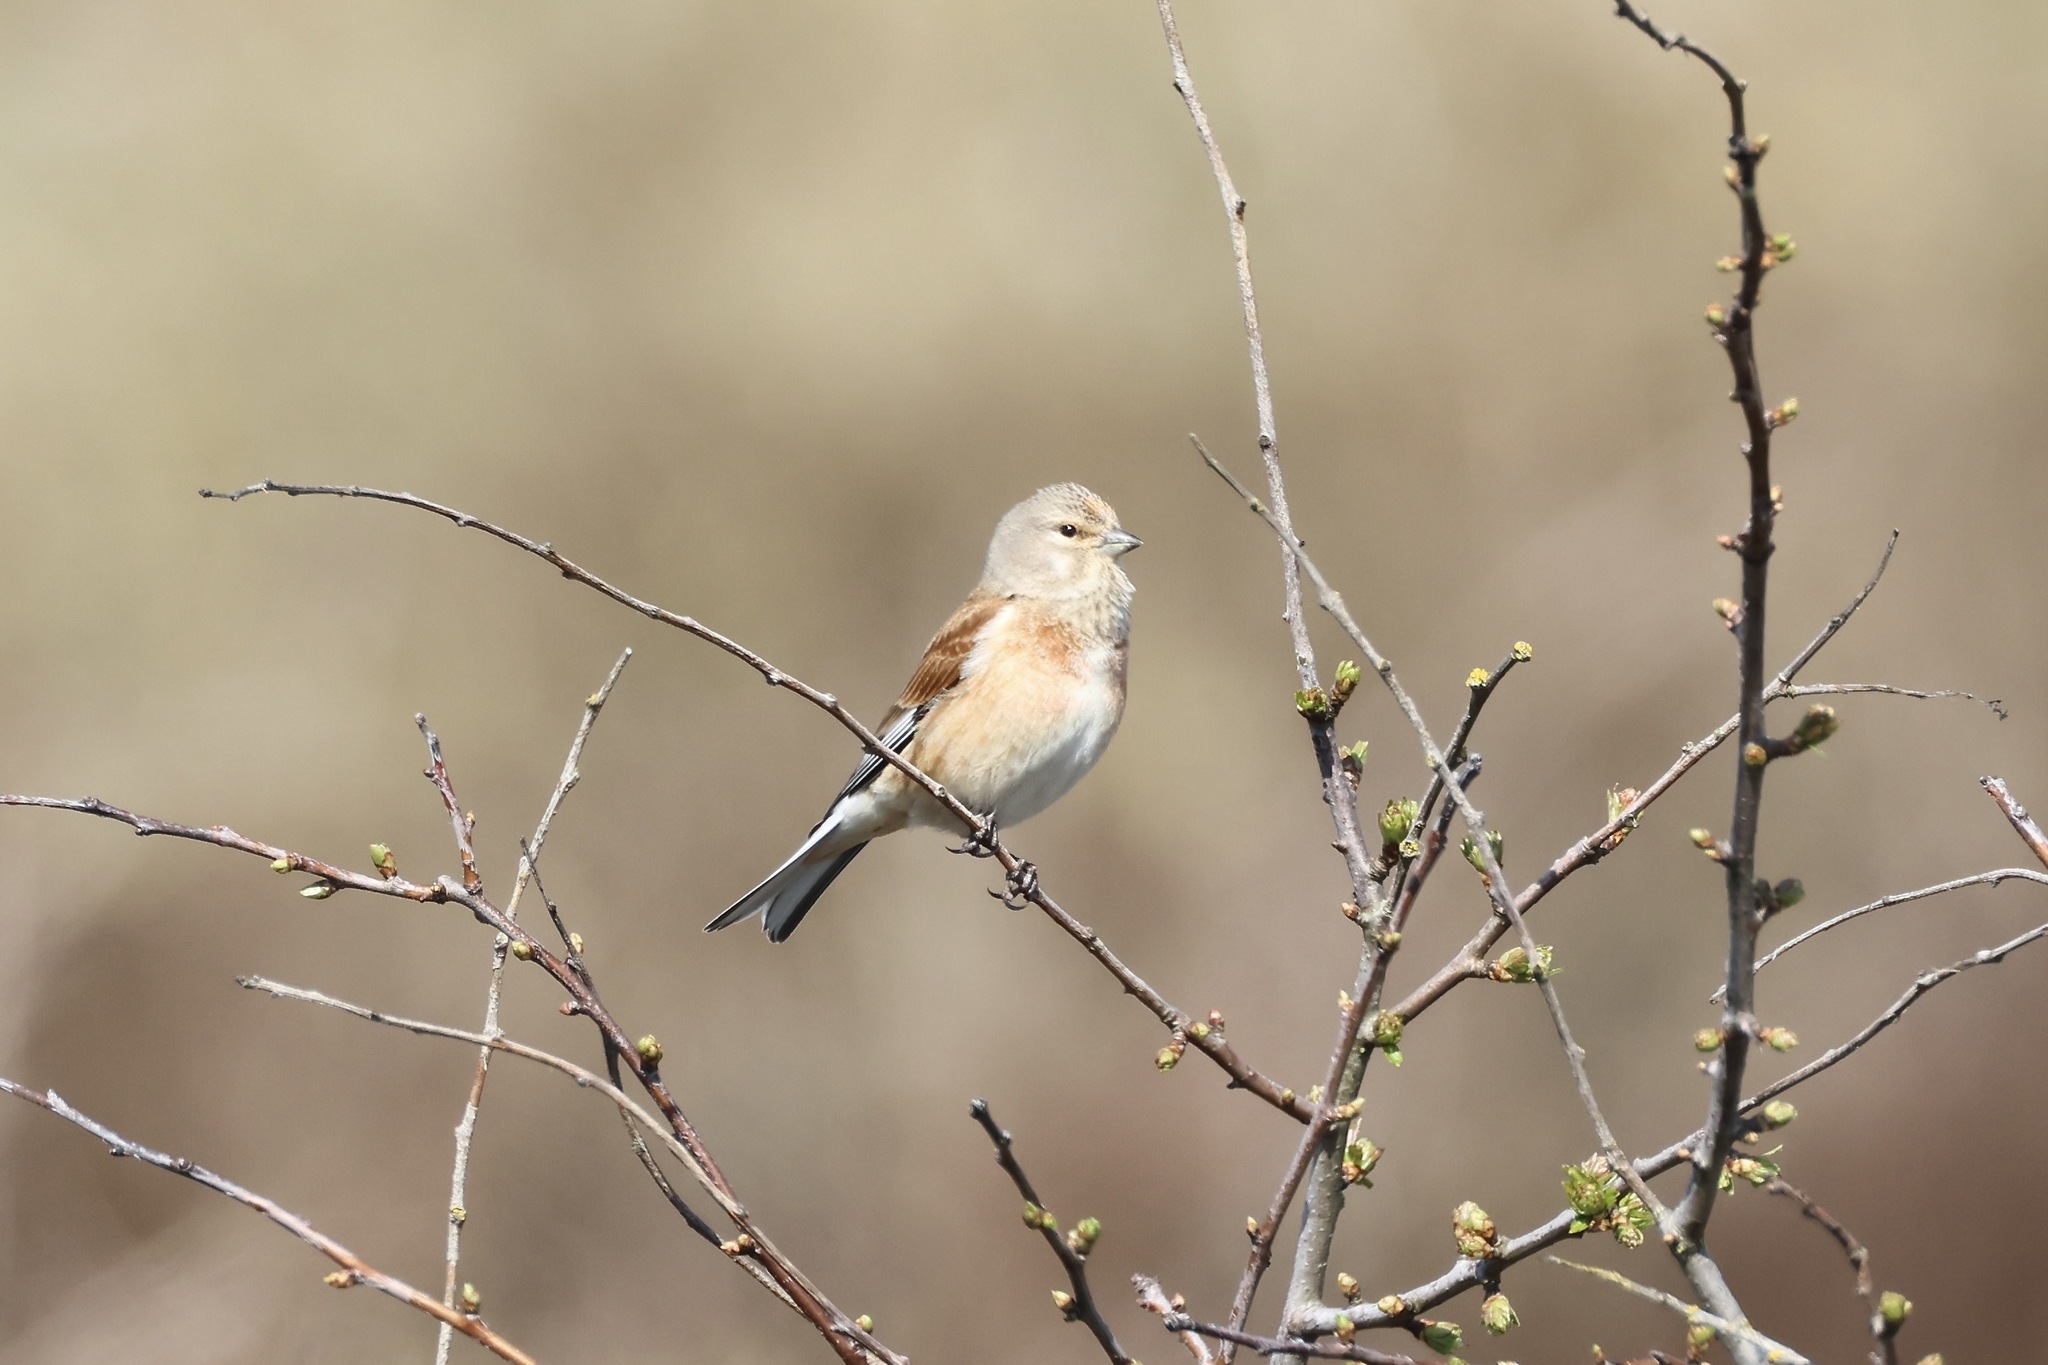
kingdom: Animalia
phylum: Chordata
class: Aves
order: Passeriformes
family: Fringillidae
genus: Linaria
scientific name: Linaria cannabina
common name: Common linnet
